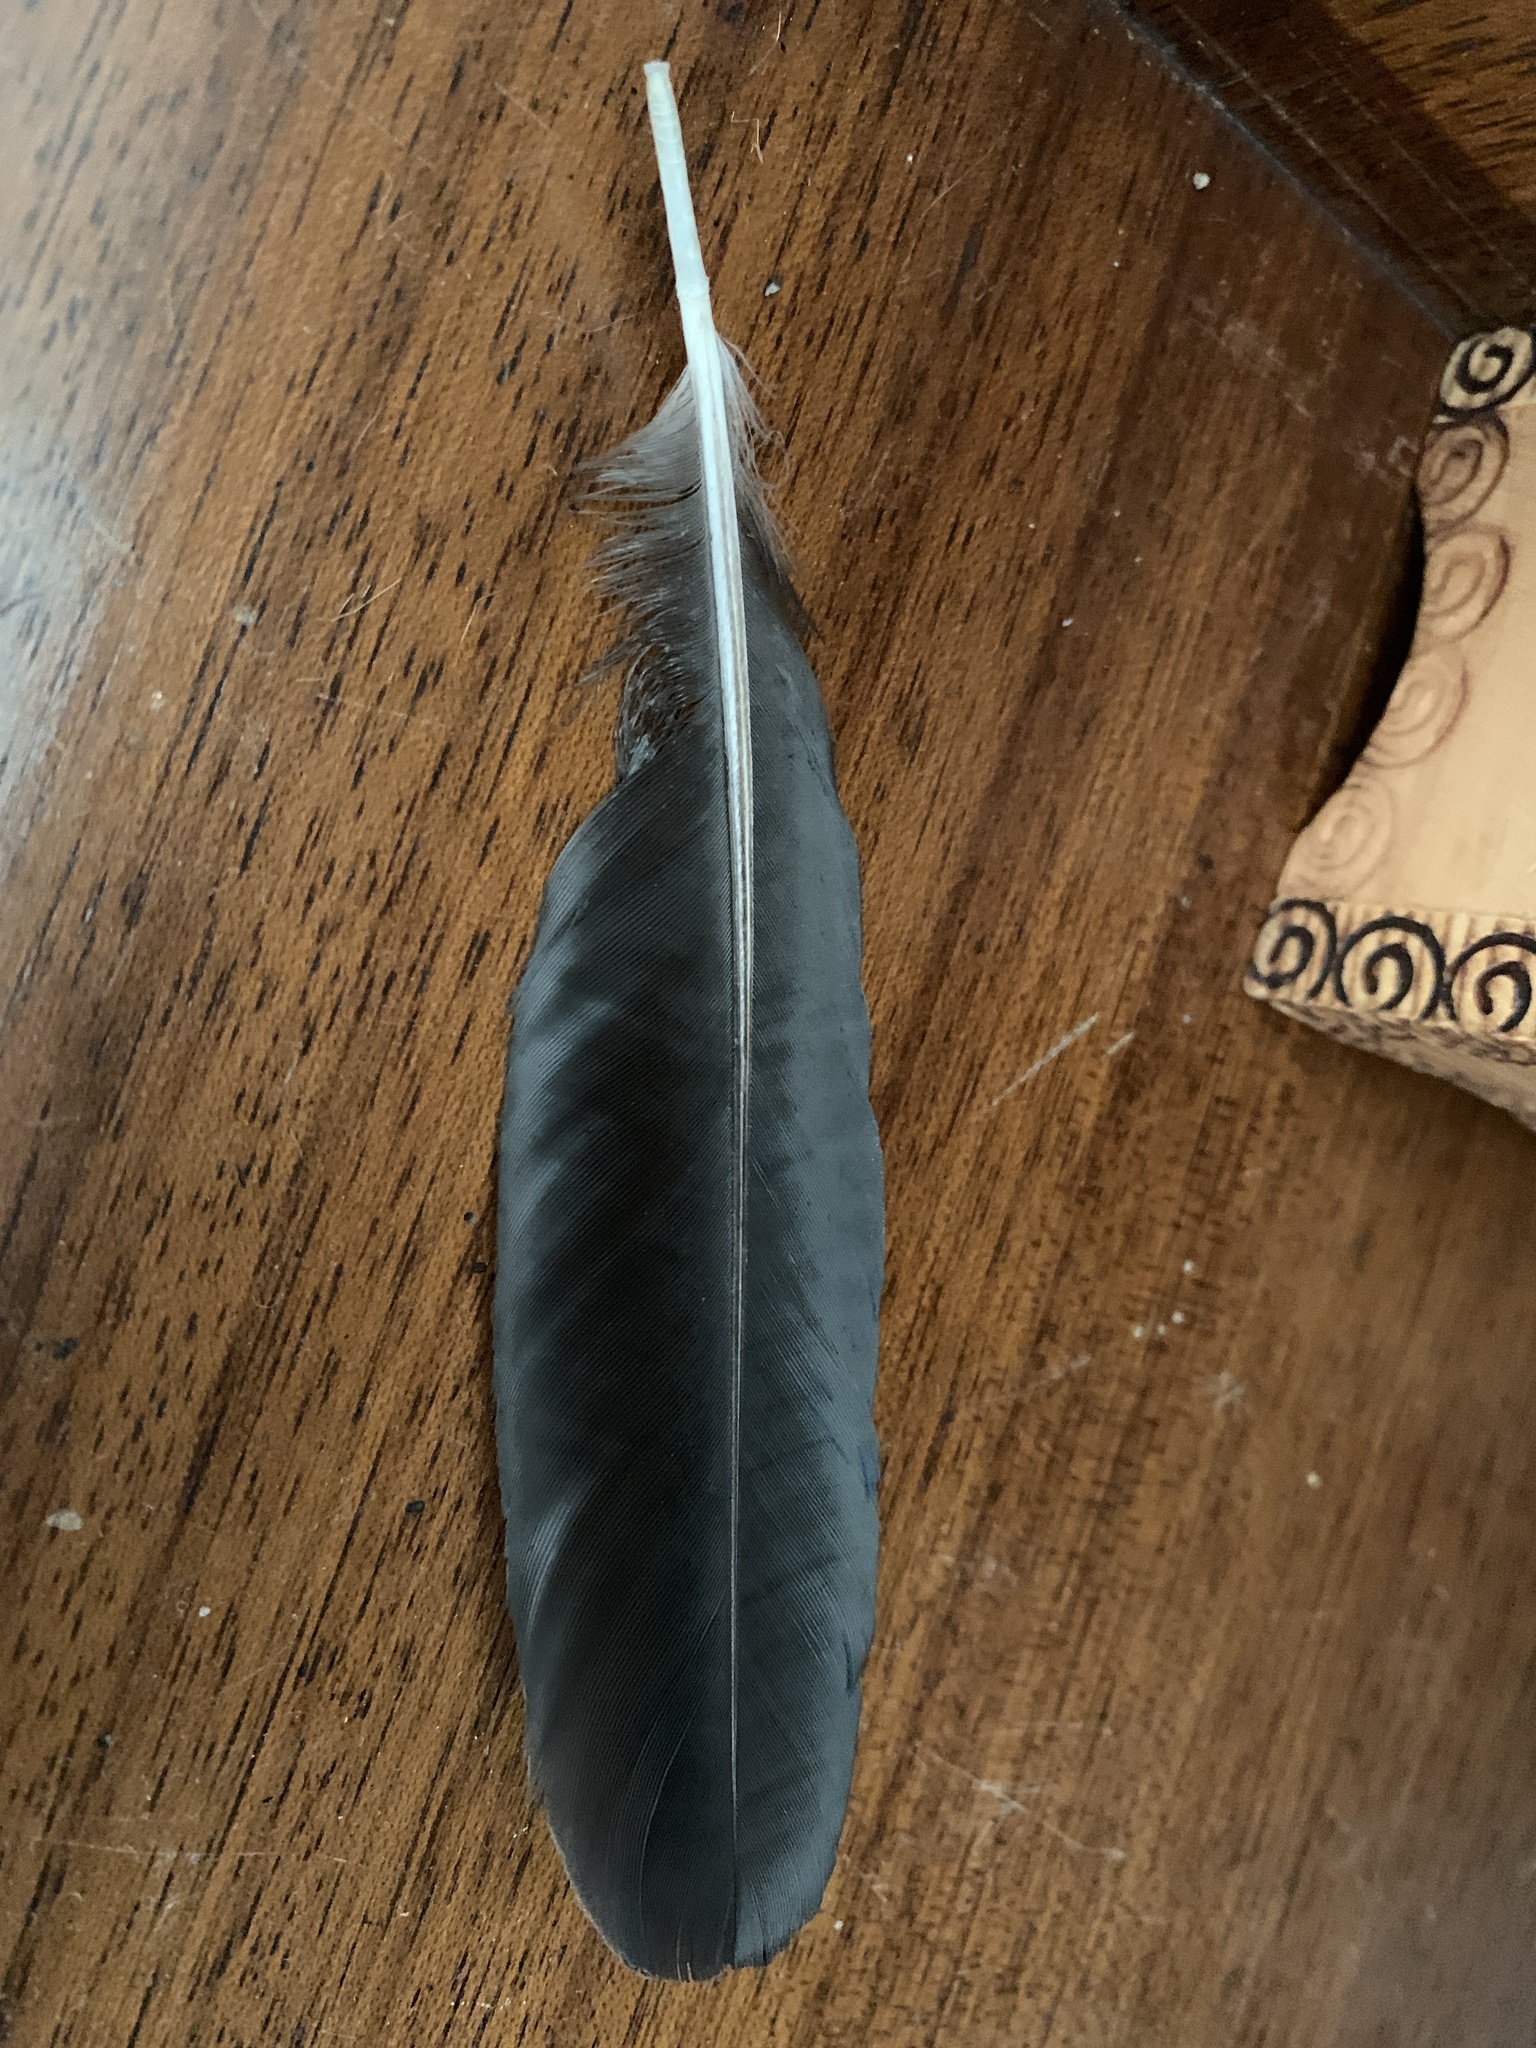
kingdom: Animalia
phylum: Chordata
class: Aves
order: Passeriformes
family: Corvidae
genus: Pica
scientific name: Pica pica
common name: Eurasian magpie
